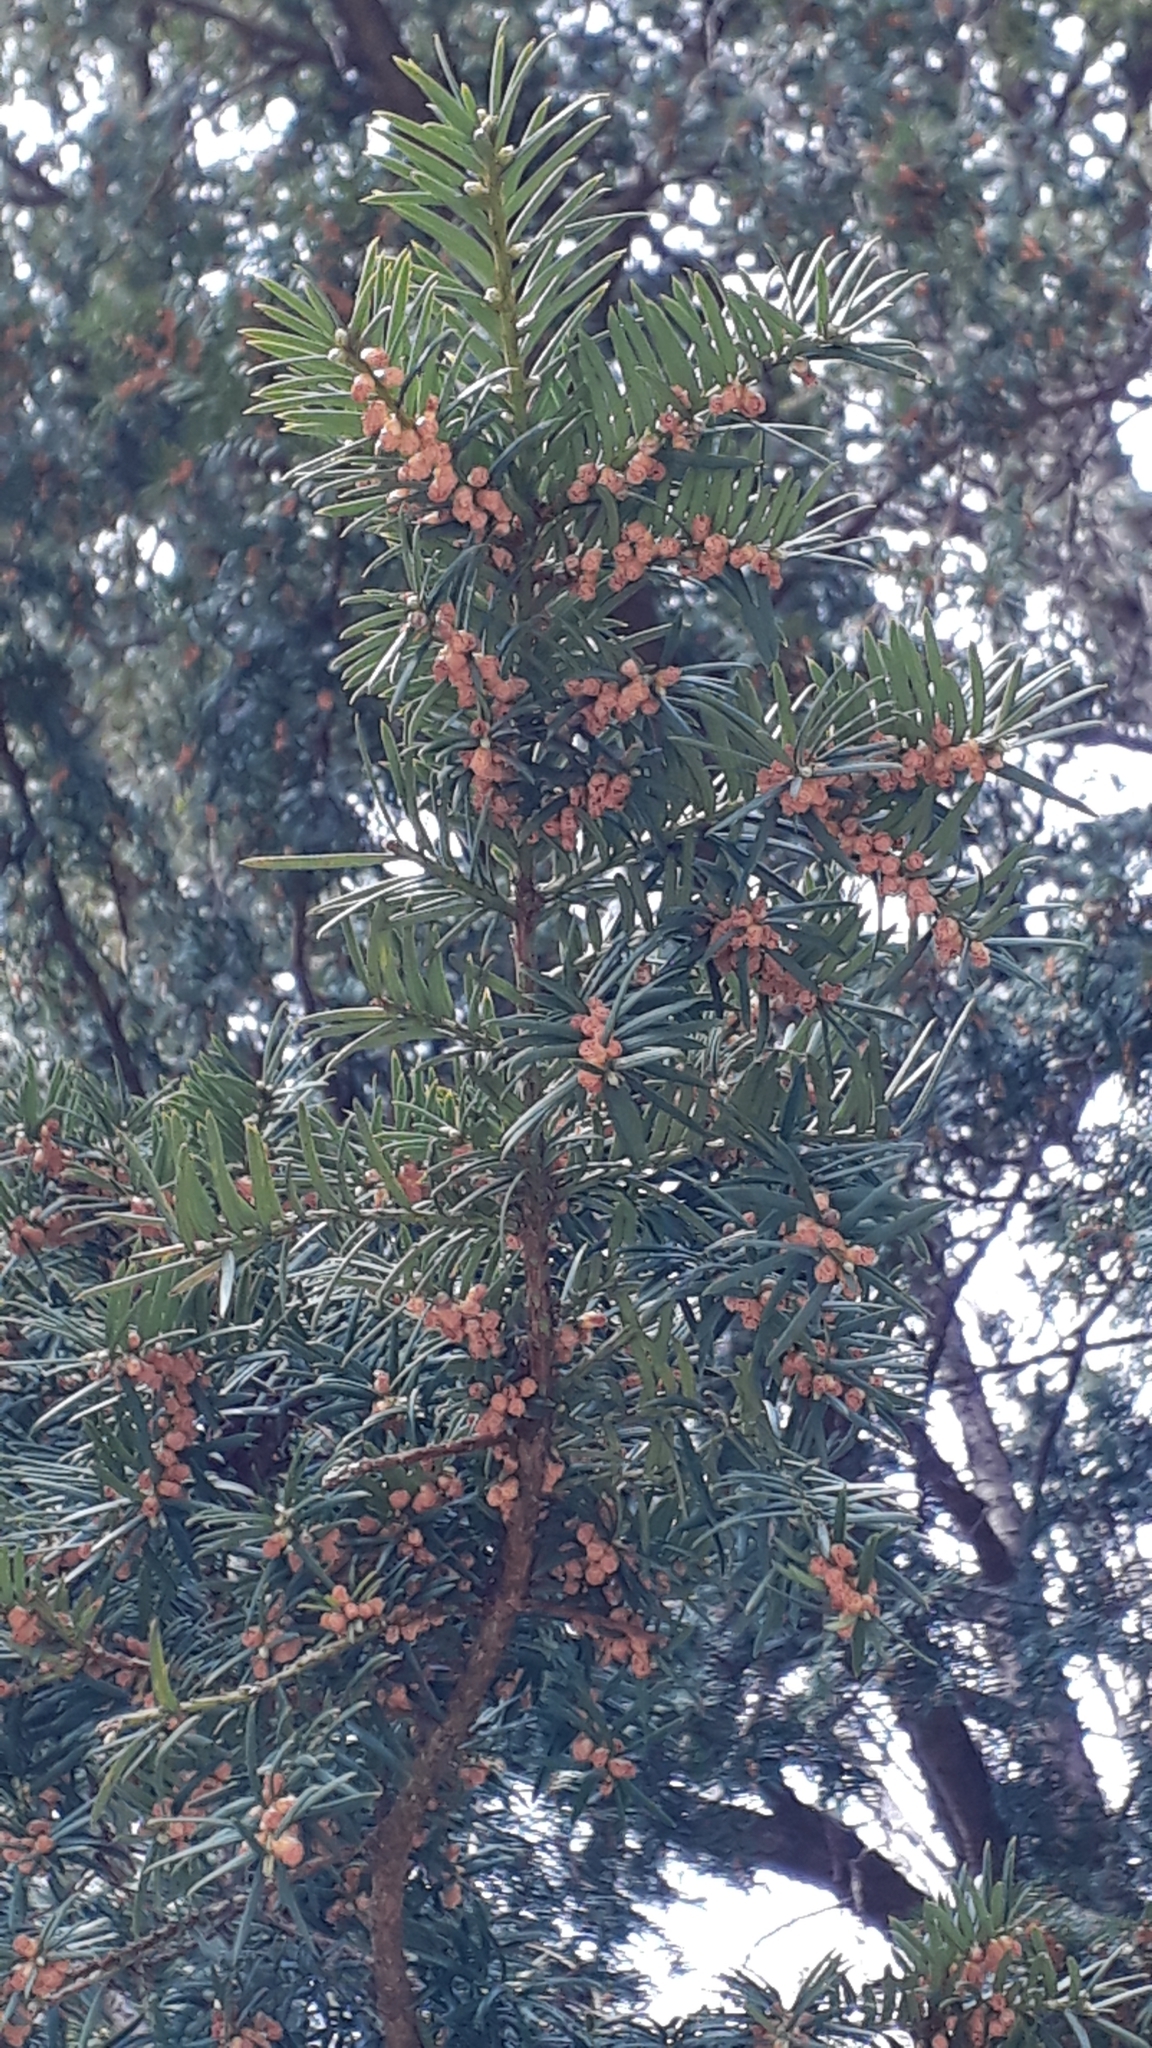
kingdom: Plantae
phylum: Tracheophyta
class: Pinopsida
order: Pinales
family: Taxaceae
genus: Taxus
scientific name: Taxus baccata
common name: Yew
